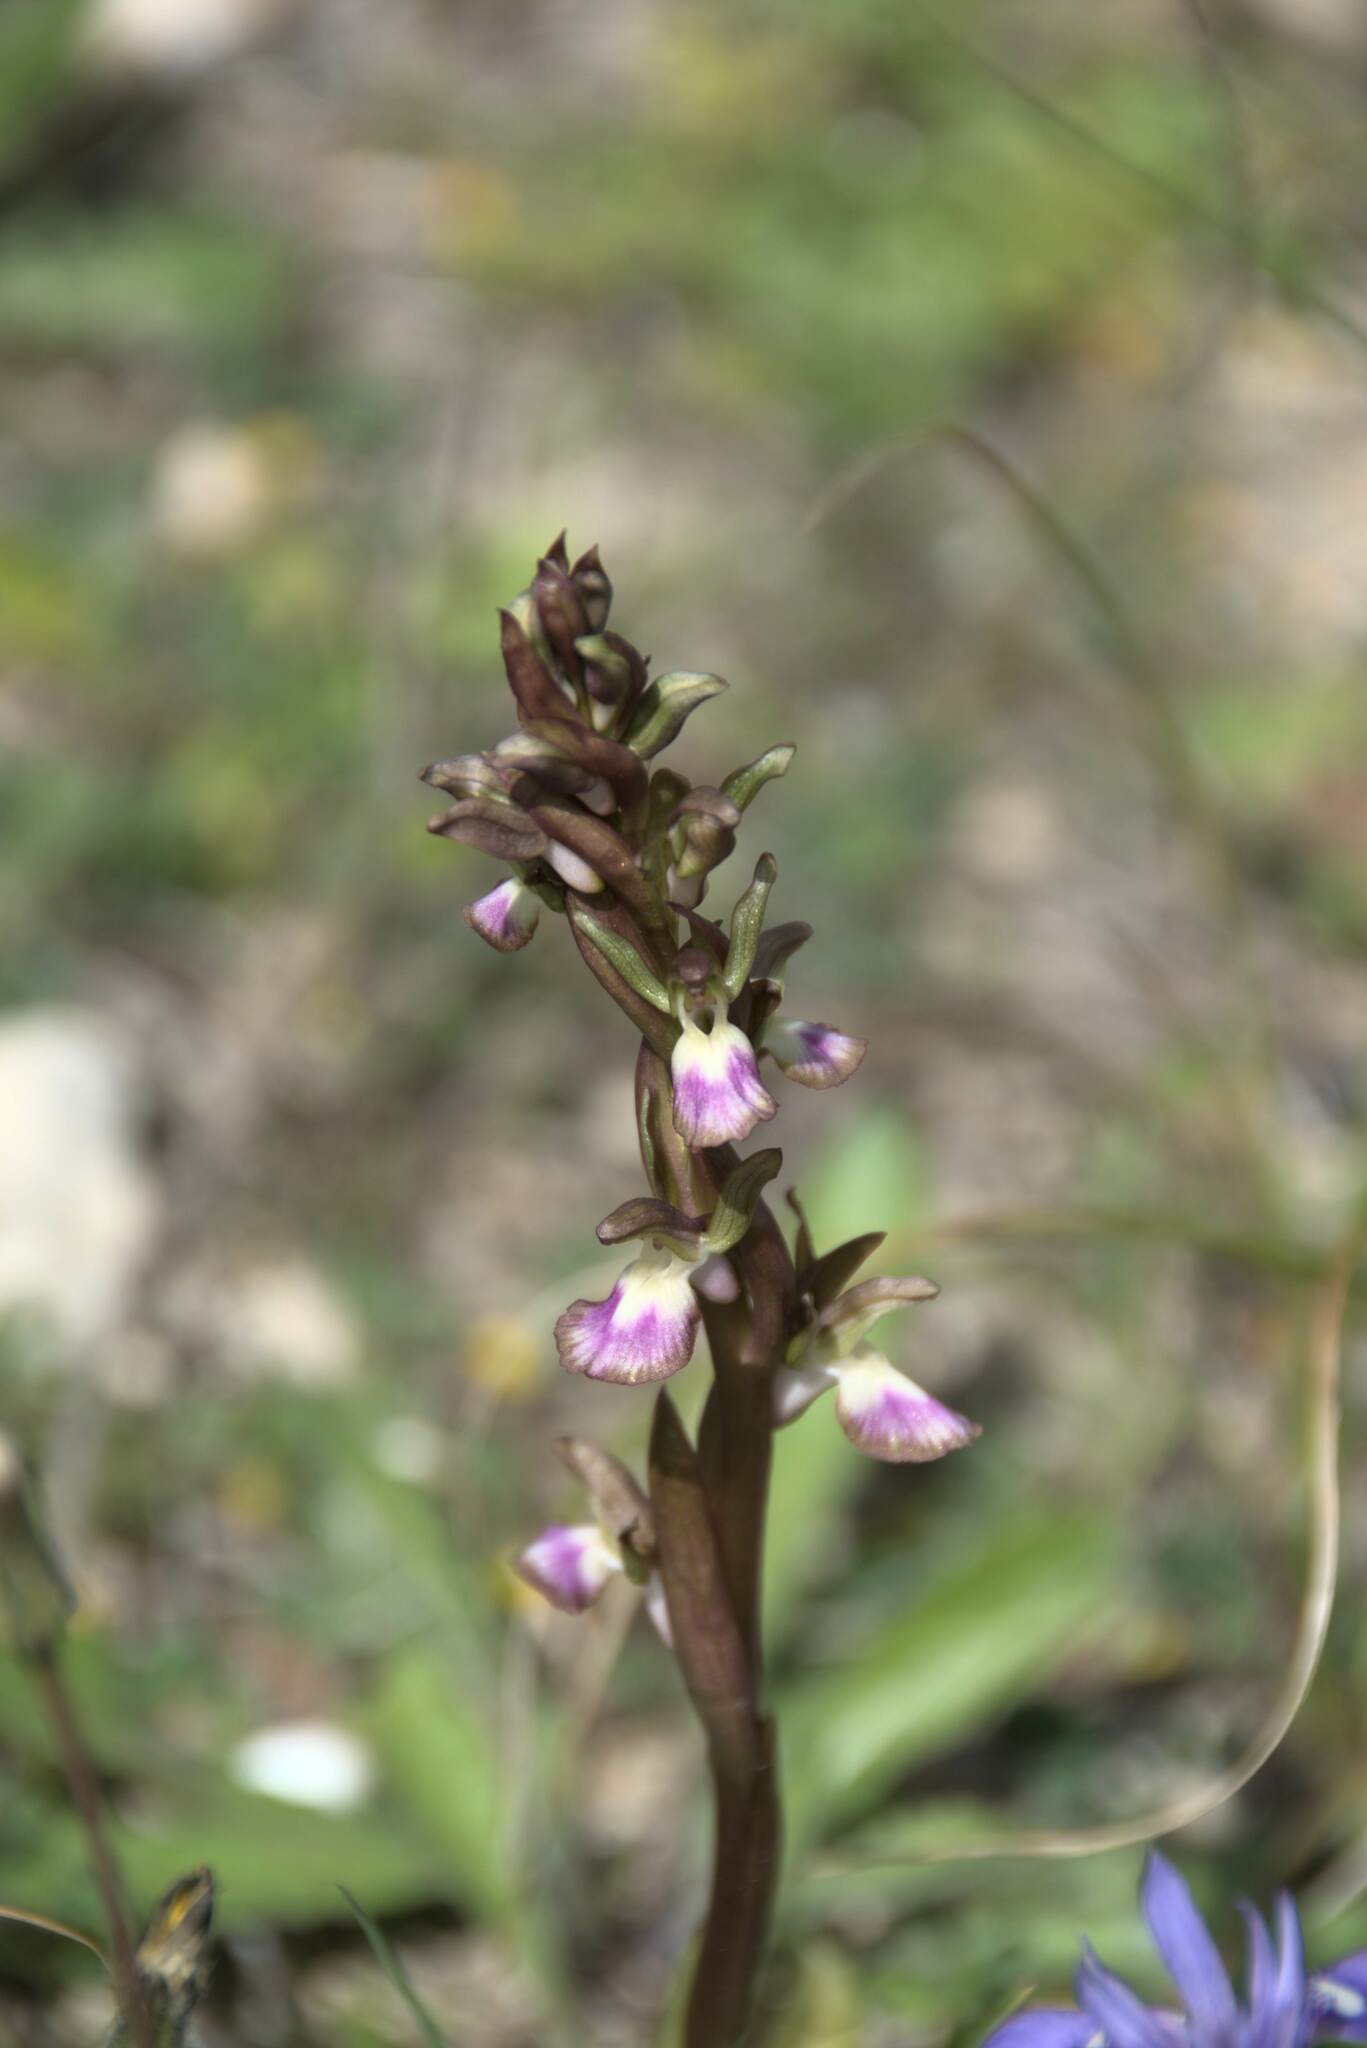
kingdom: Plantae
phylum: Tracheophyta
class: Liliopsida
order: Asparagales
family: Orchidaceae
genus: Anacamptis
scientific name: Anacamptis collina
